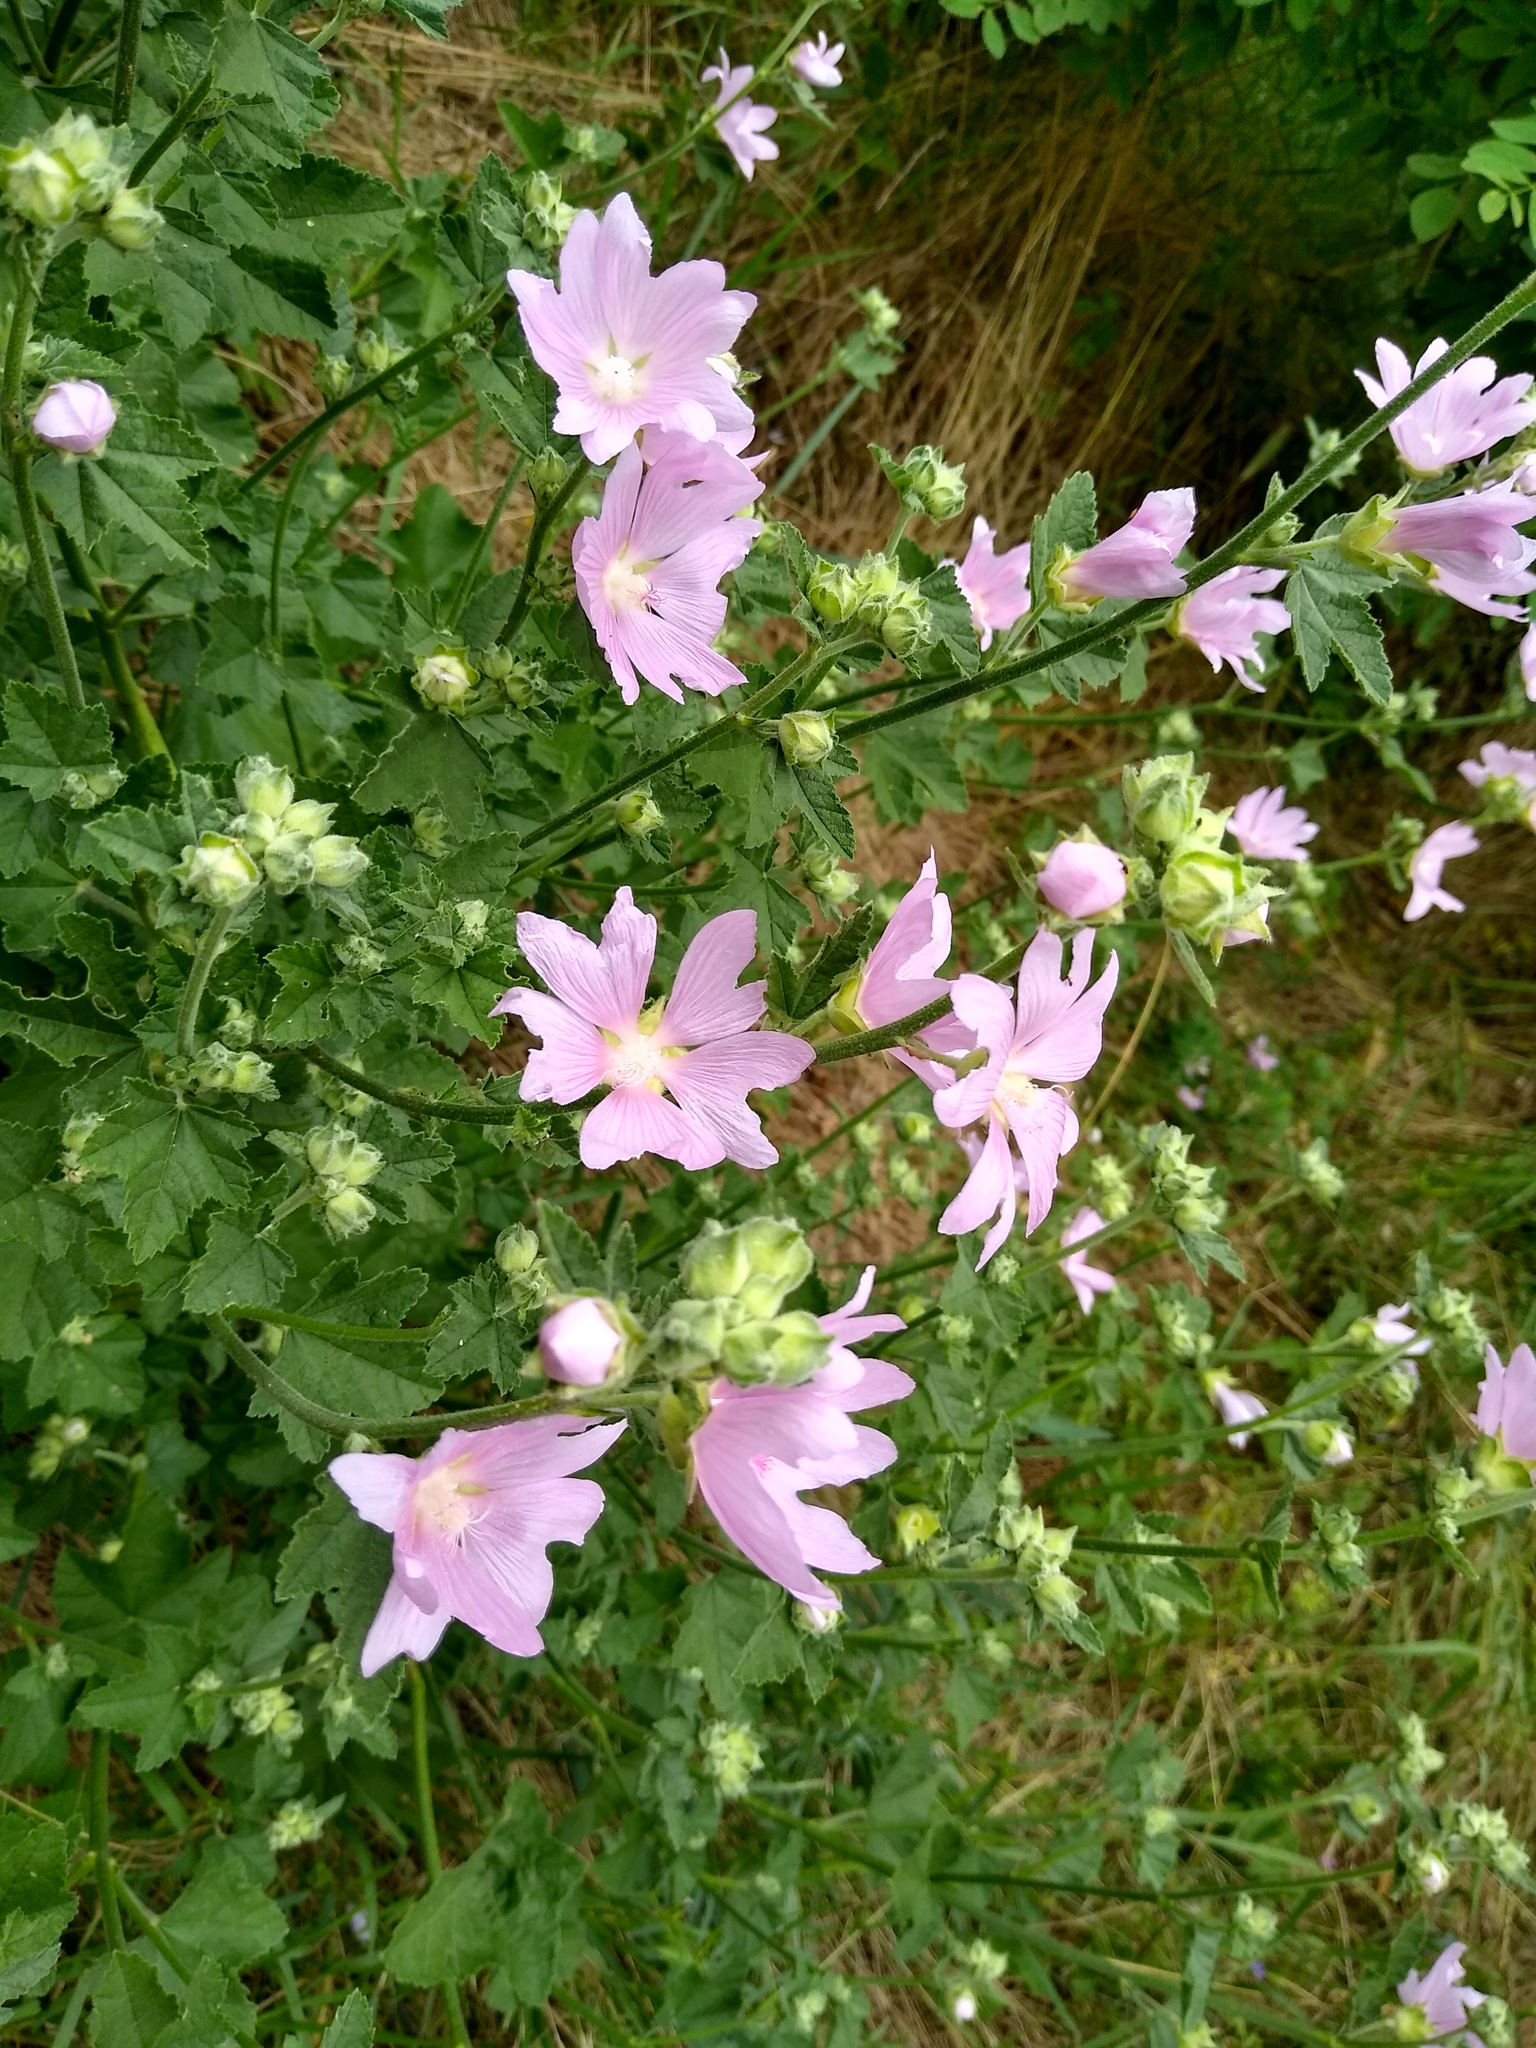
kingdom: Plantae
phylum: Tracheophyta
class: Magnoliopsida
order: Malvales
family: Malvaceae
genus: Malva
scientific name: Malva thuringiaca
